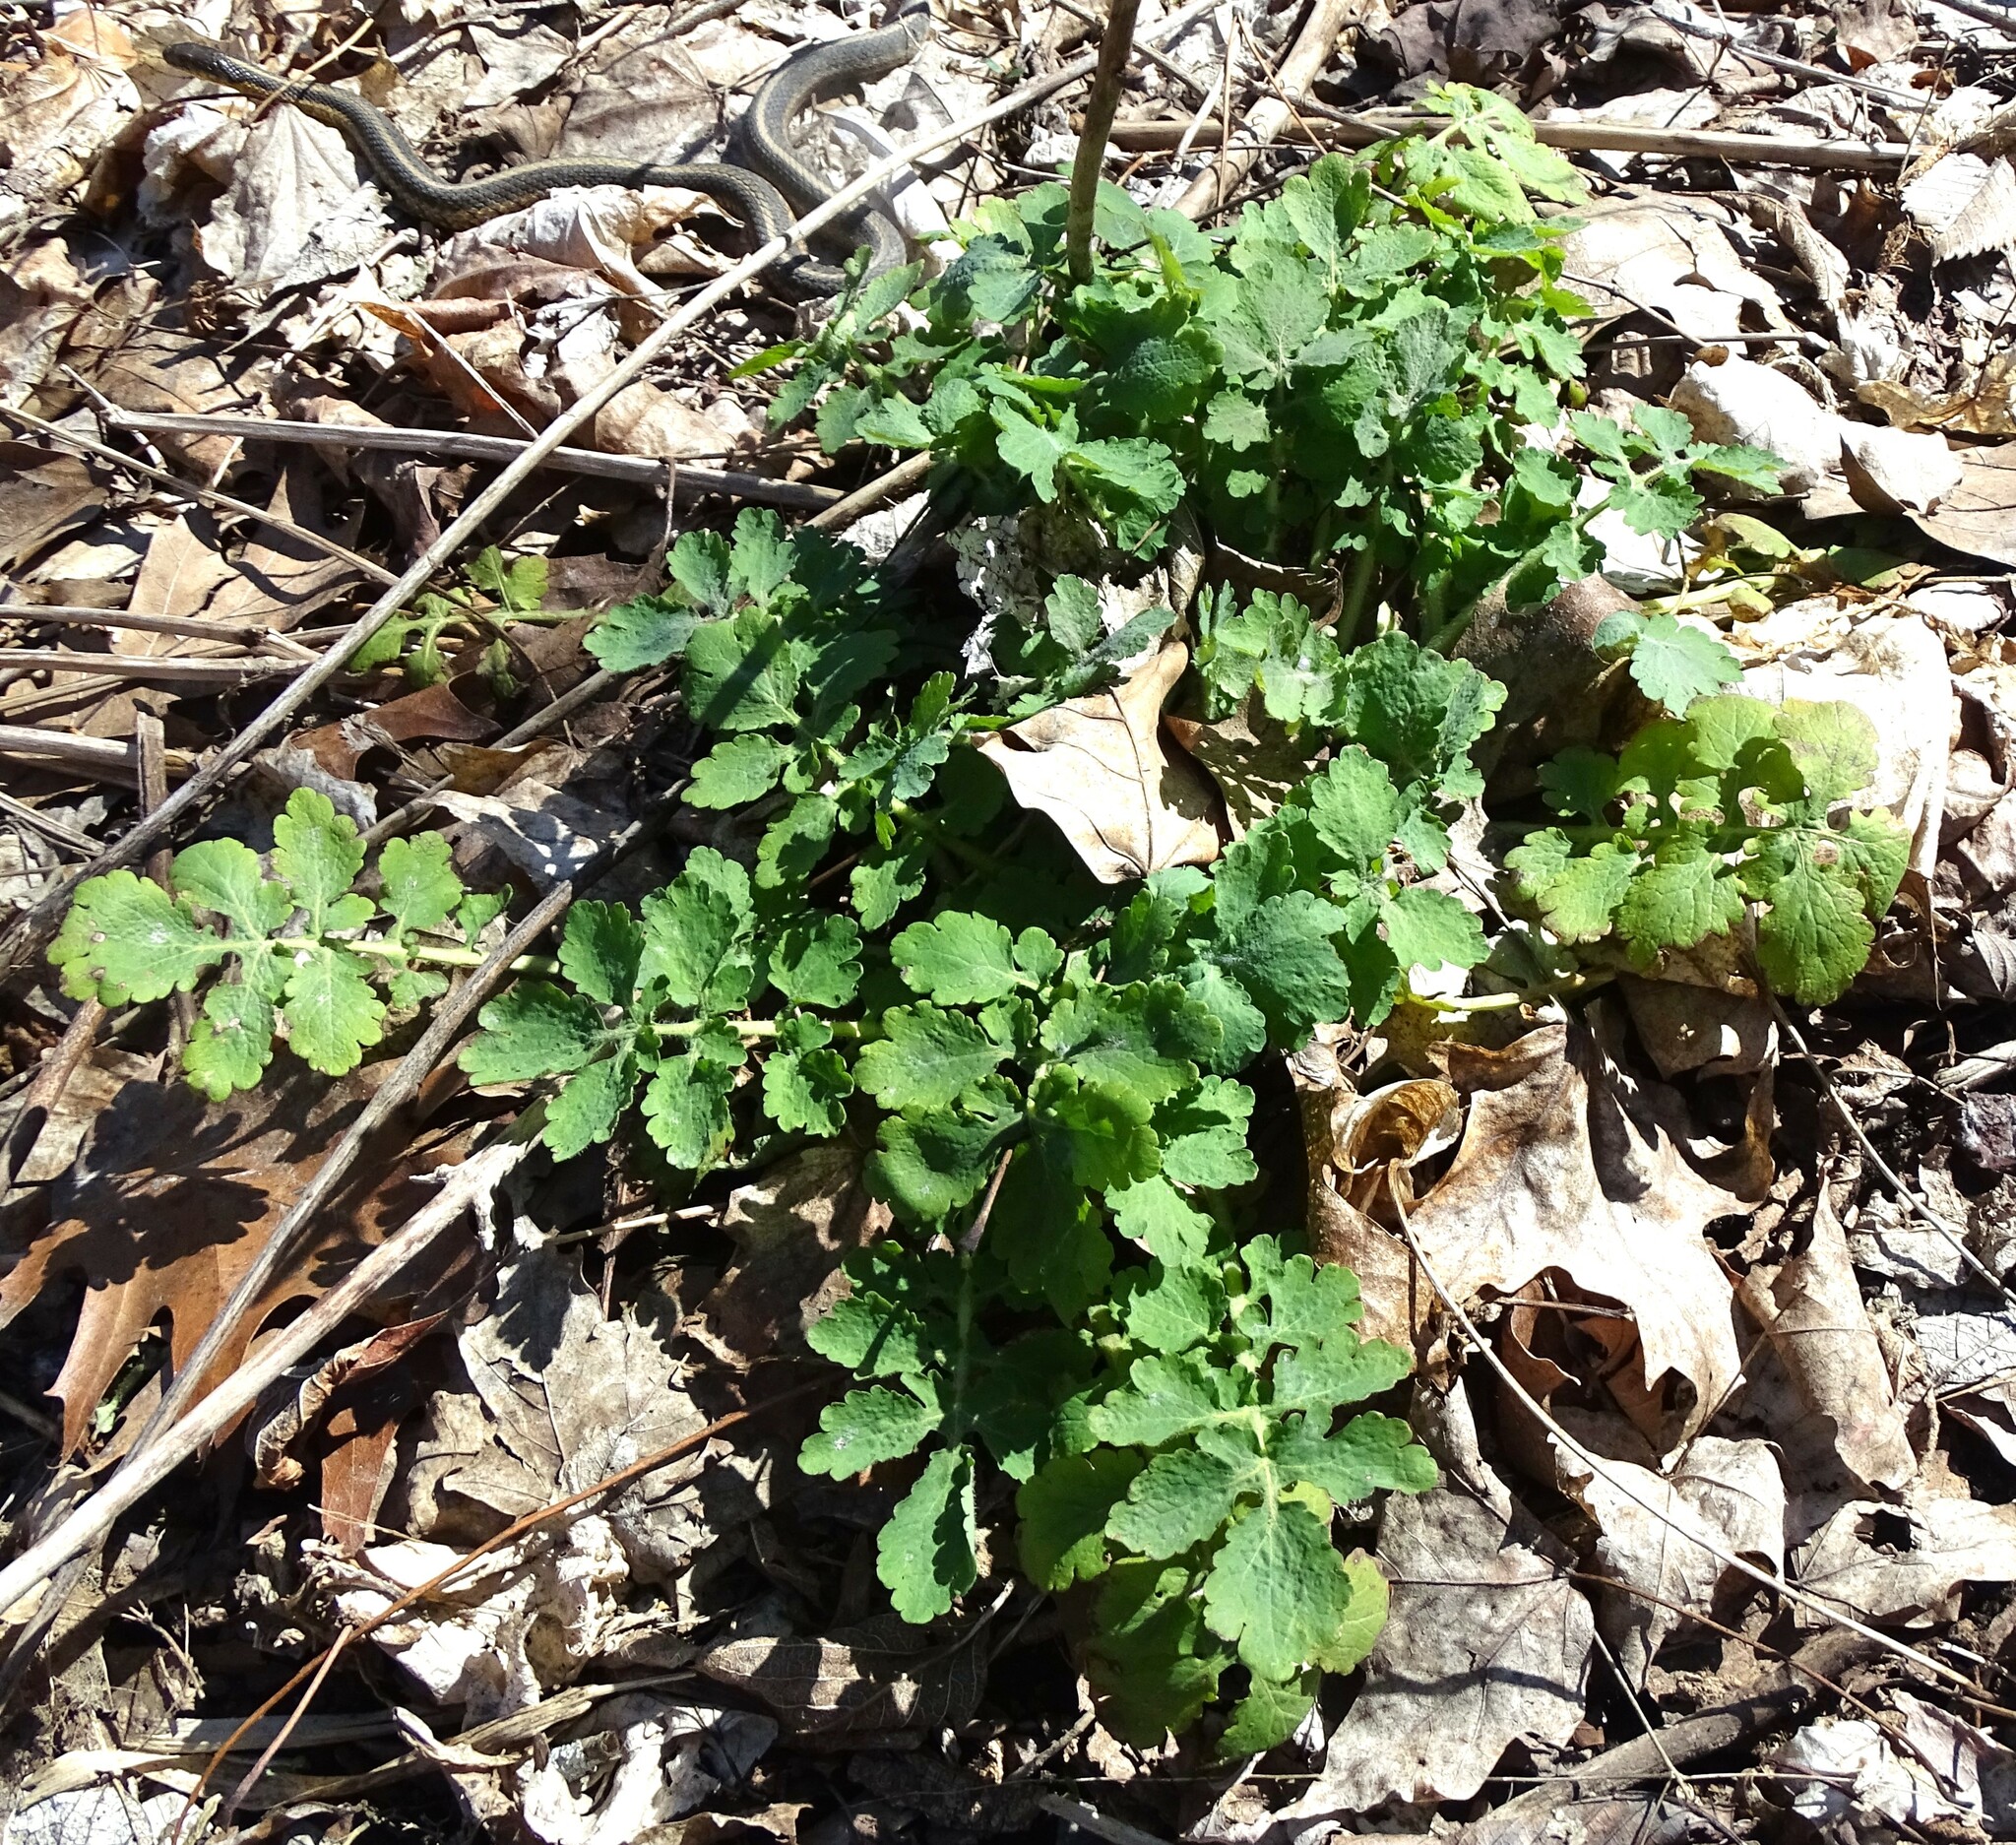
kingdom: Plantae
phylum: Tracheophyta
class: Magnoliopsida
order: Ranunculales
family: Papaveraceae
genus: Chelidonium
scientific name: Chelidonium majus
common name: Greater celandine
